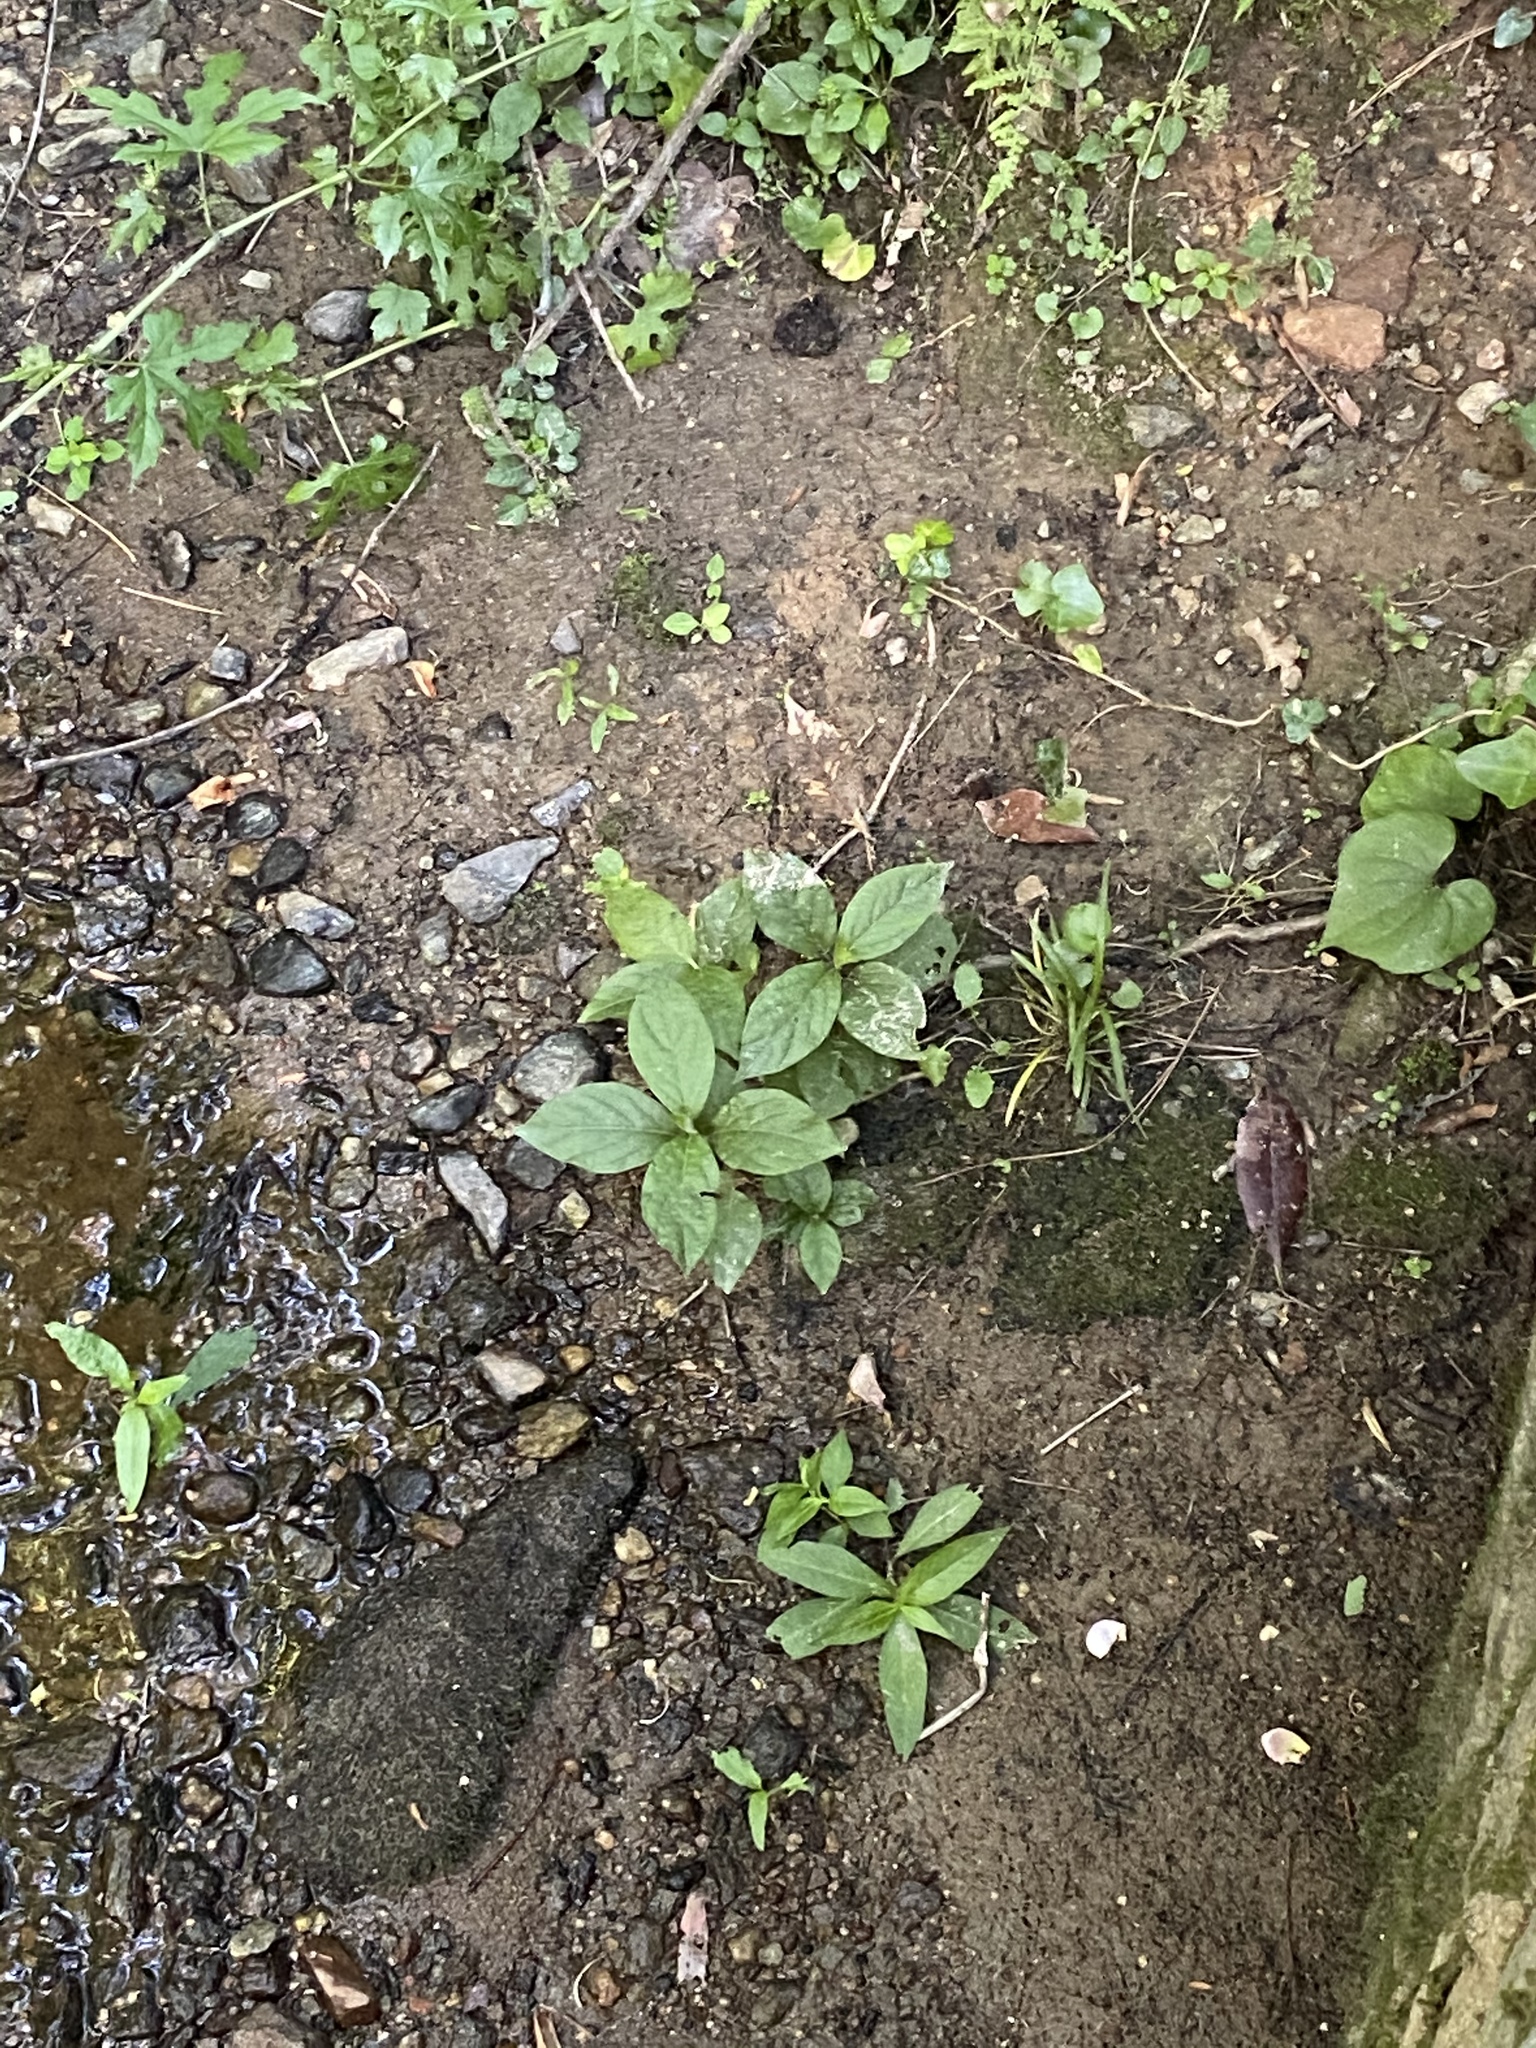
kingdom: Plantae
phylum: Tracheophyta
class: Magnoliopsida
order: Caryophyllales
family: Amaranthaceae
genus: Achyranthes
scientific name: Achyranthes bidentata
